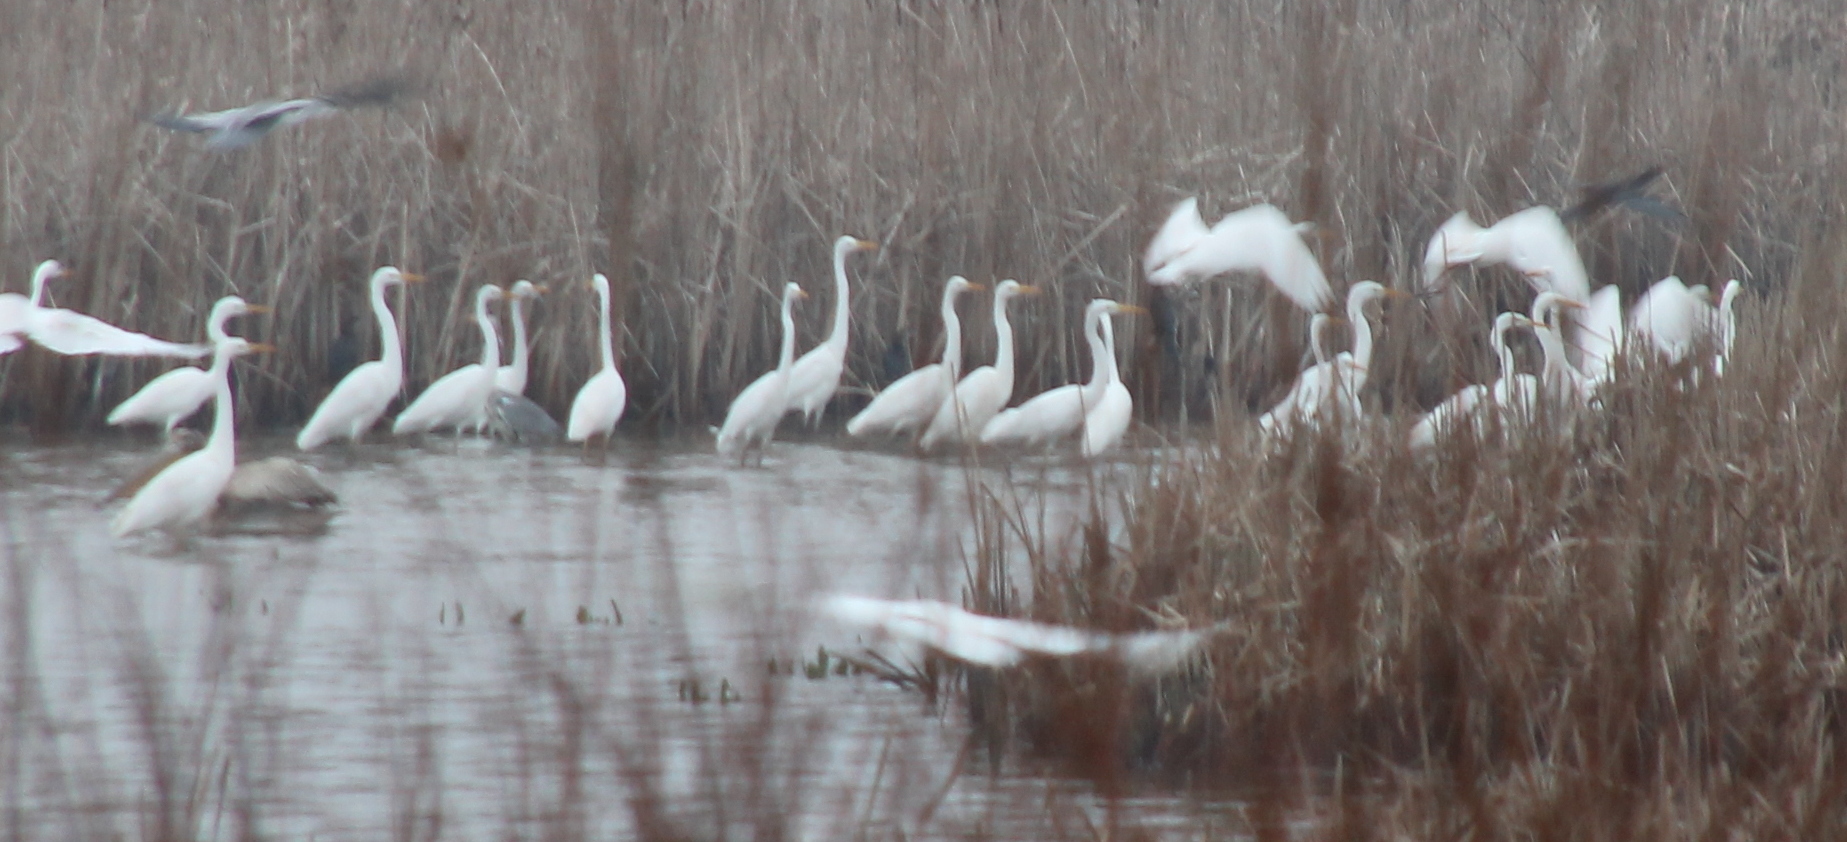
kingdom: Animalia
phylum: Chordata
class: Aves
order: Pelecaniformes
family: Ardeidae
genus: Ardea
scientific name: Ardea alba
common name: Great egret
